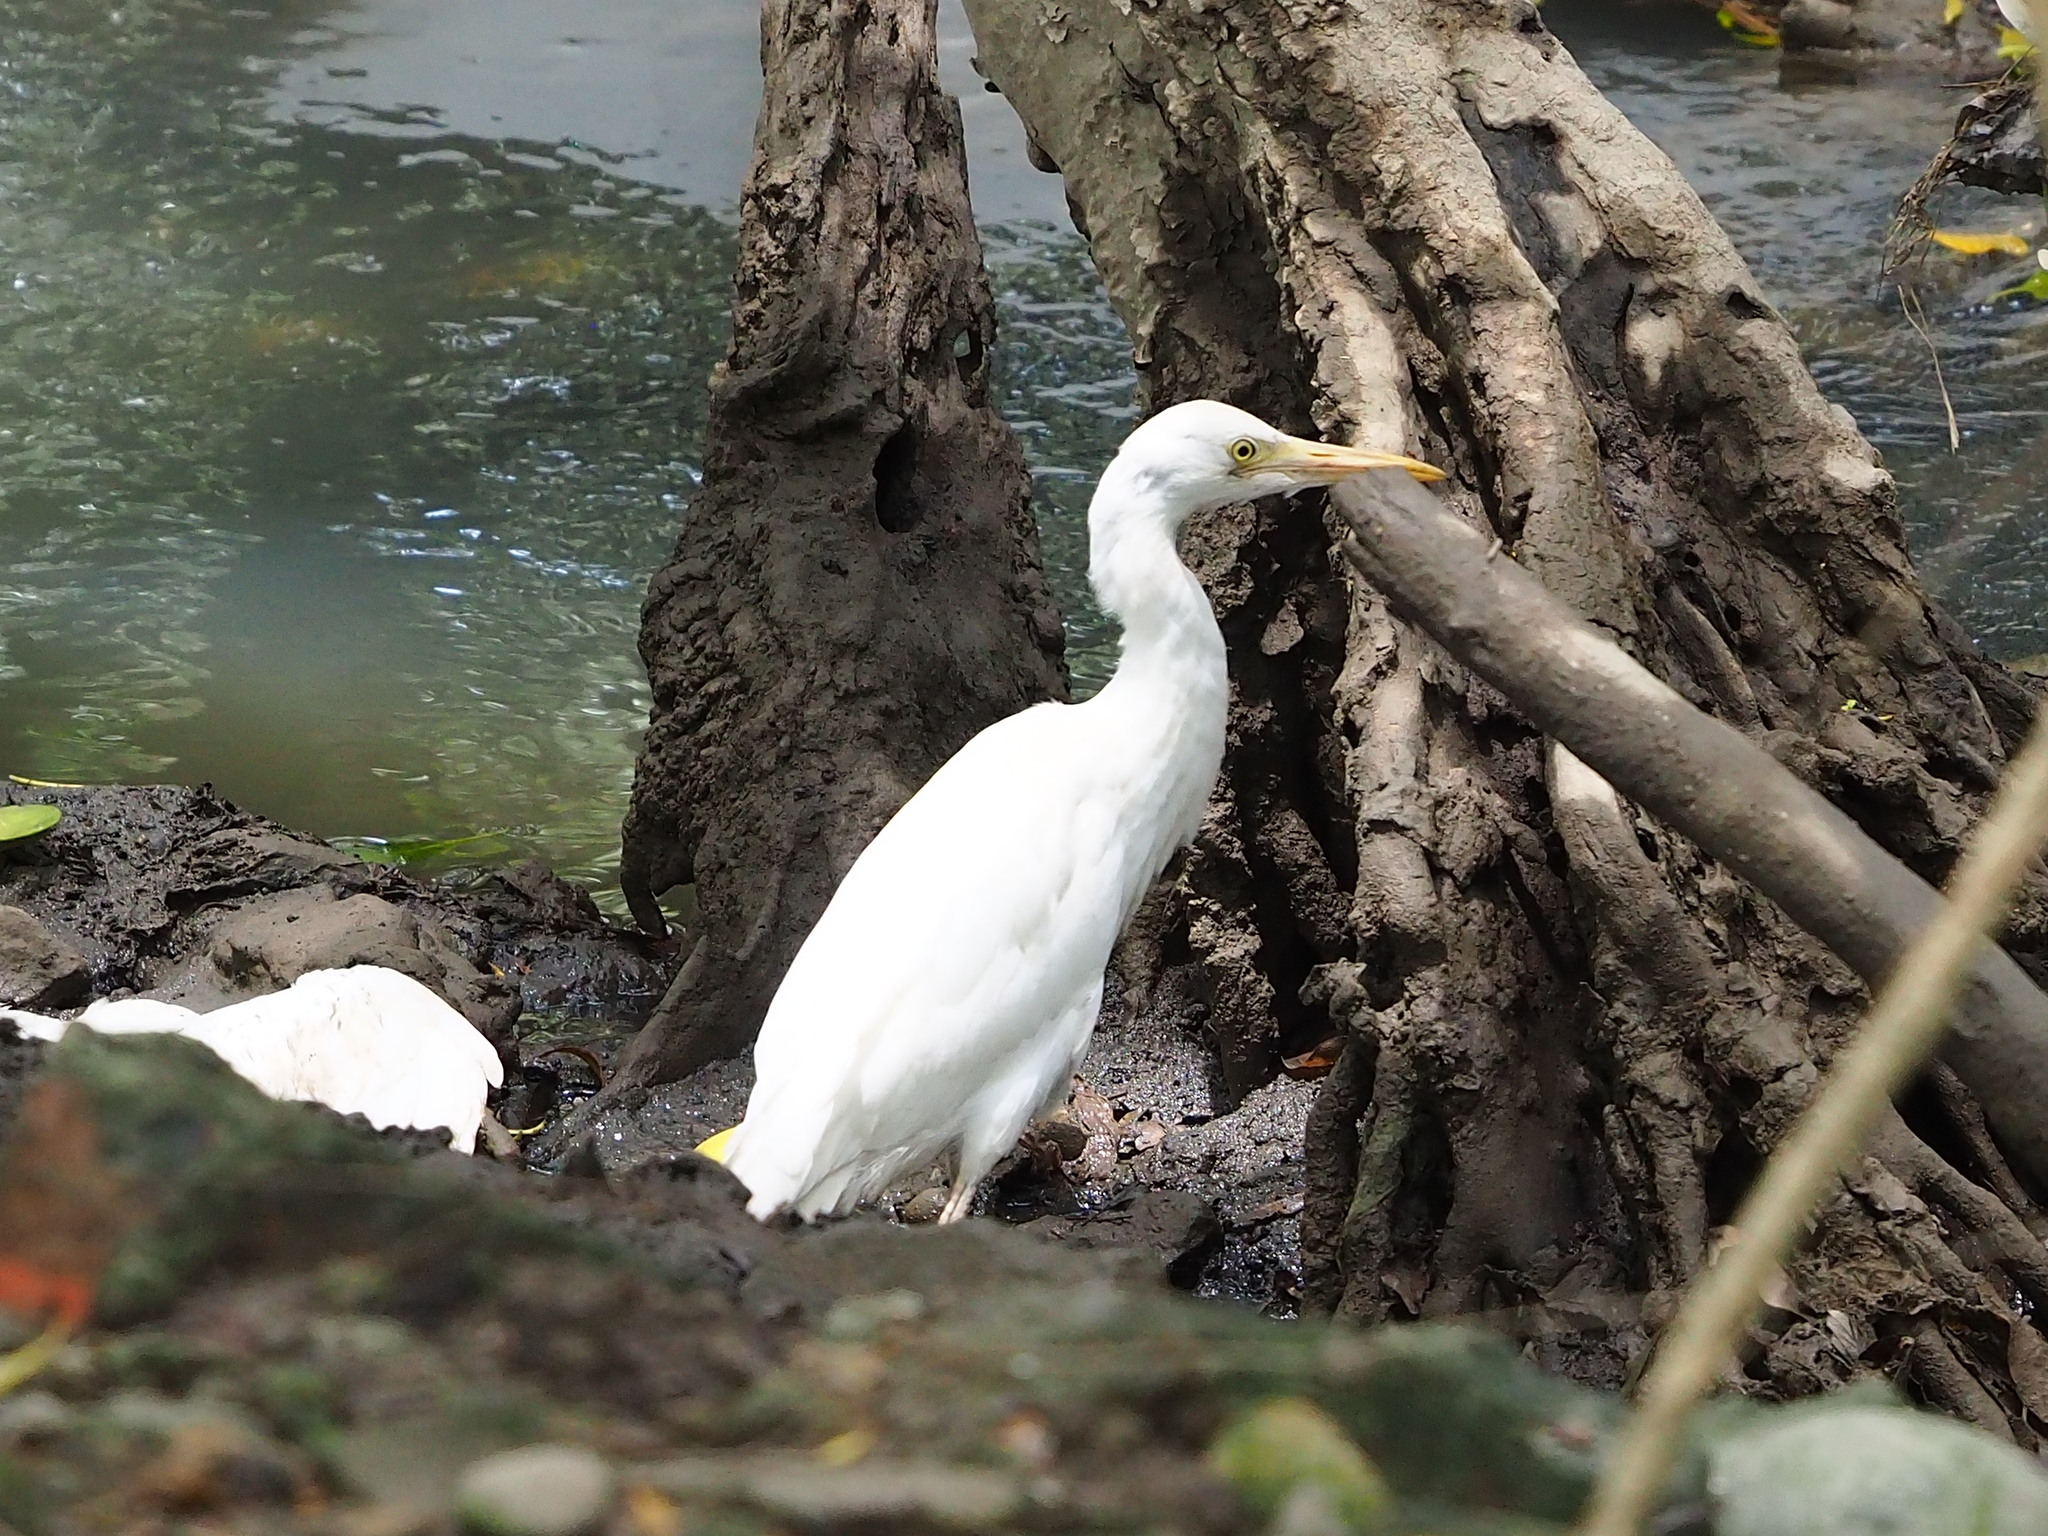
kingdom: Animalia
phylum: Chordata
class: Aves
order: Pelecaniformes
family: Ardeidae
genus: Bubulcus
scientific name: Bubulcus coromandus
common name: Eastern cattle egret
